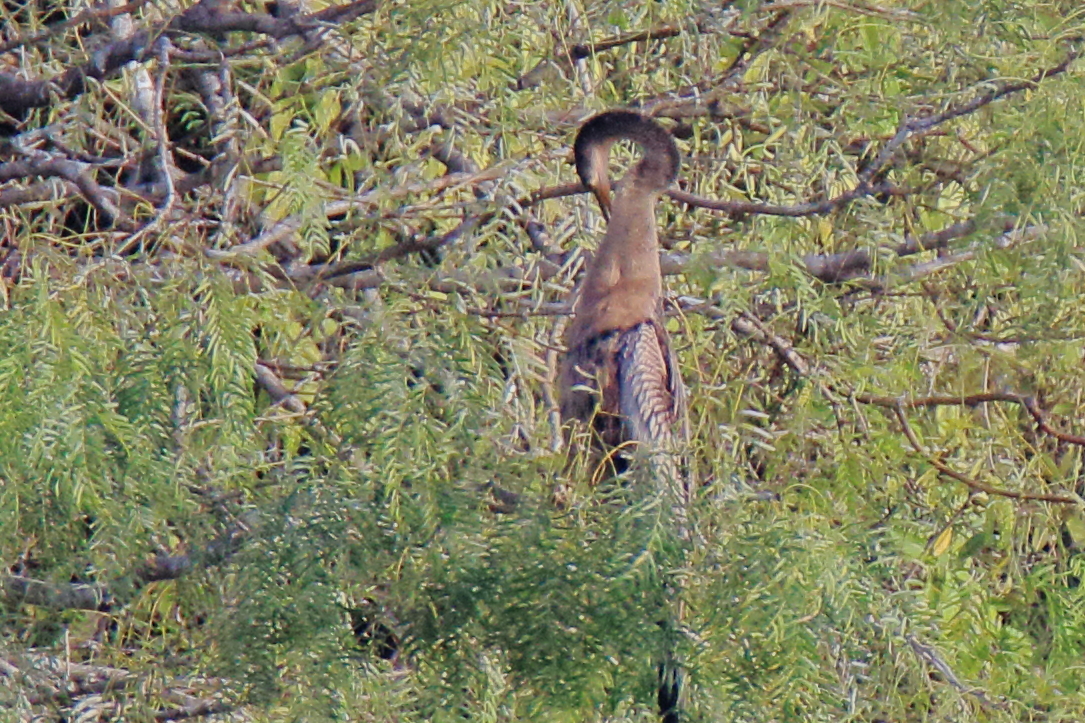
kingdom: Animalia
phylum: Chordata
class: Aves
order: Suliformes
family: Anhingidae
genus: Anhinga
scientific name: Anhinga anhinga
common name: Anhinga
